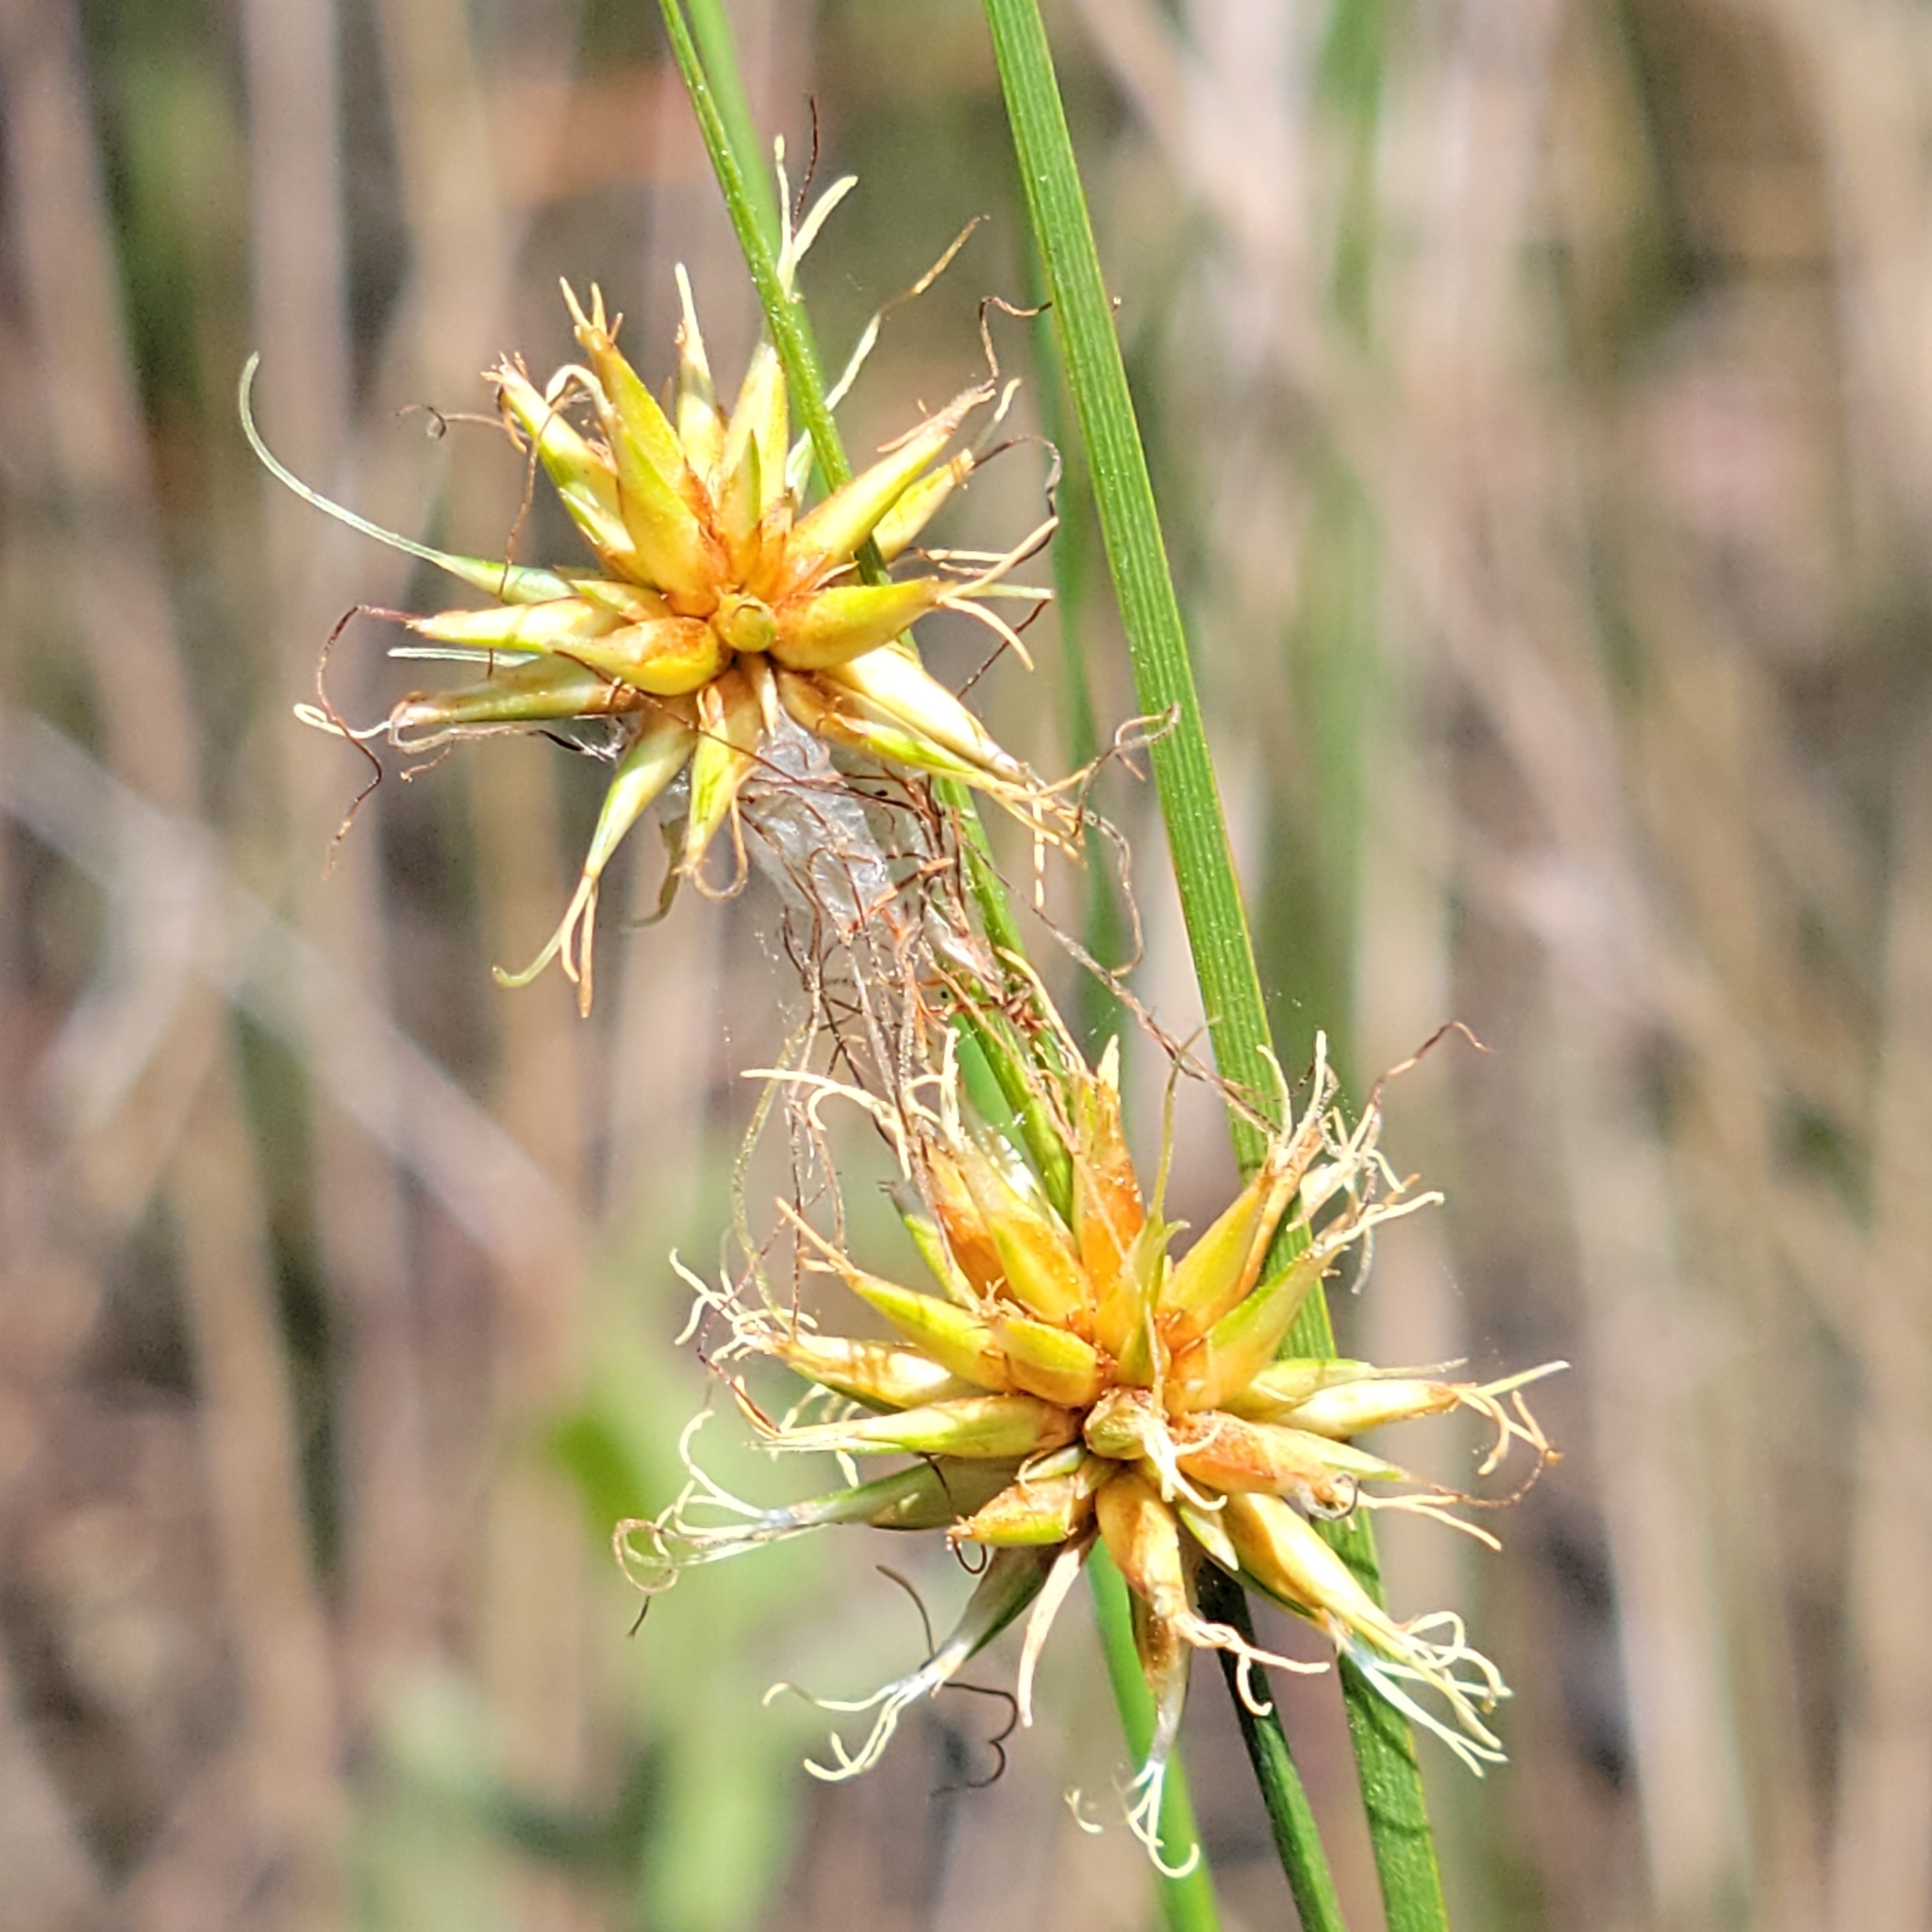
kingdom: Plantae
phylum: Tracheophyta
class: Liliopsida
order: Poales
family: Cyperaceae
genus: Rhynchospora
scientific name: Rhynchospora tracyi
